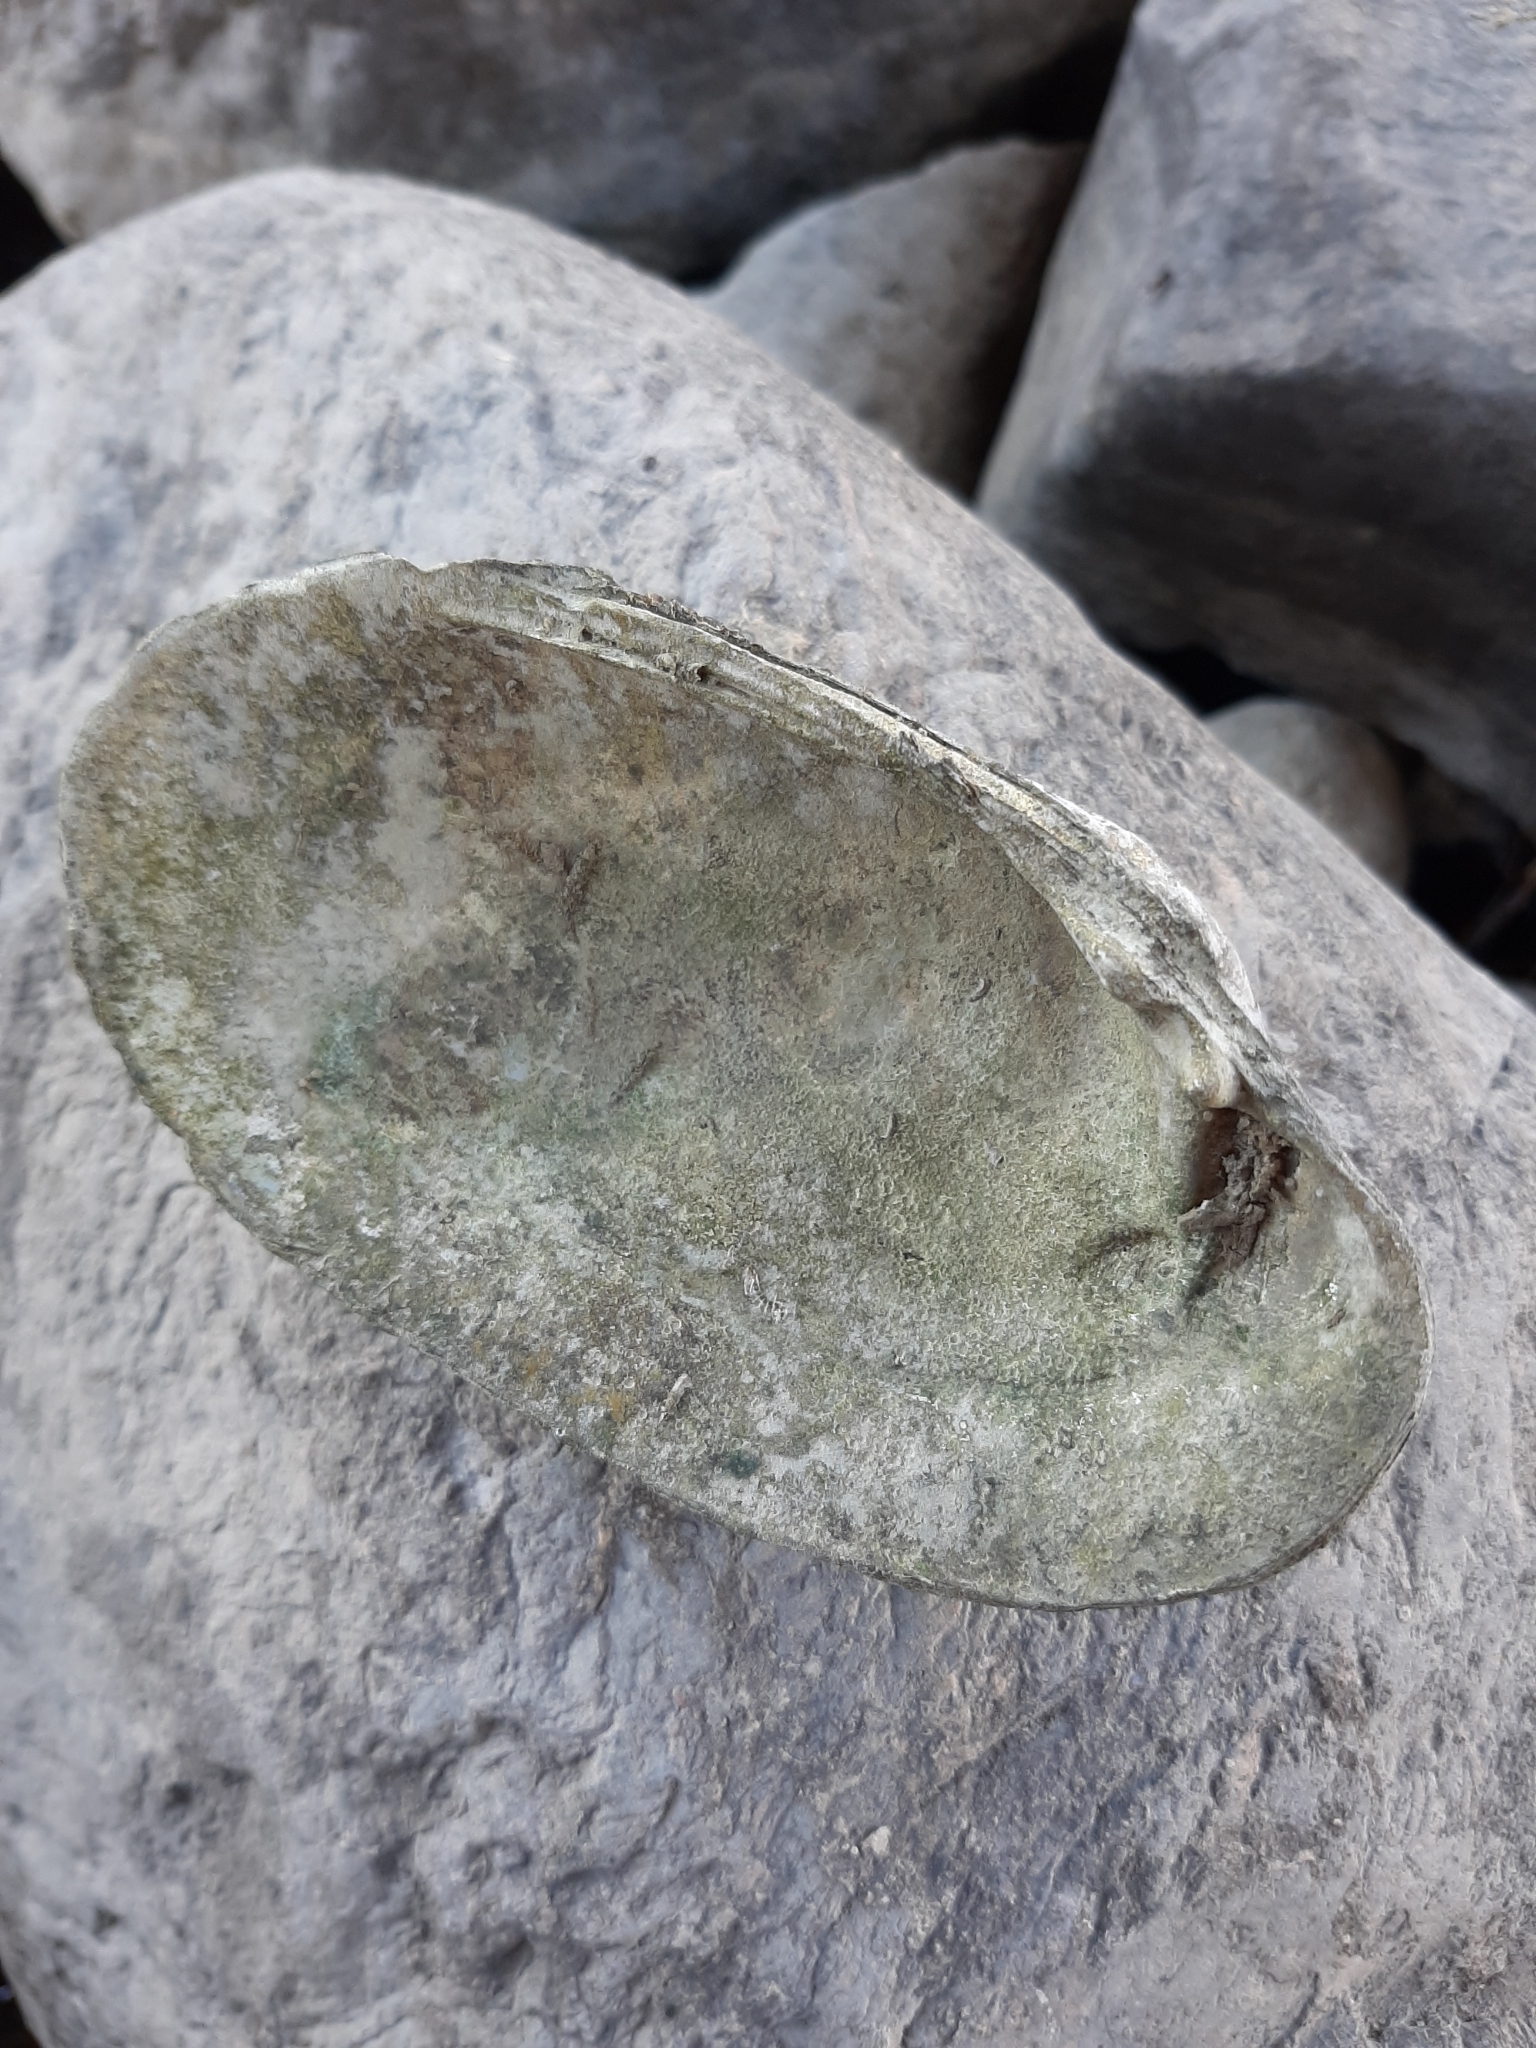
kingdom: Animalia
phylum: Mollusca
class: Bivalvia
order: Unionida
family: Unionidae
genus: Lampsilis
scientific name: Lampsilis siliquoidea
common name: Fatmucket
